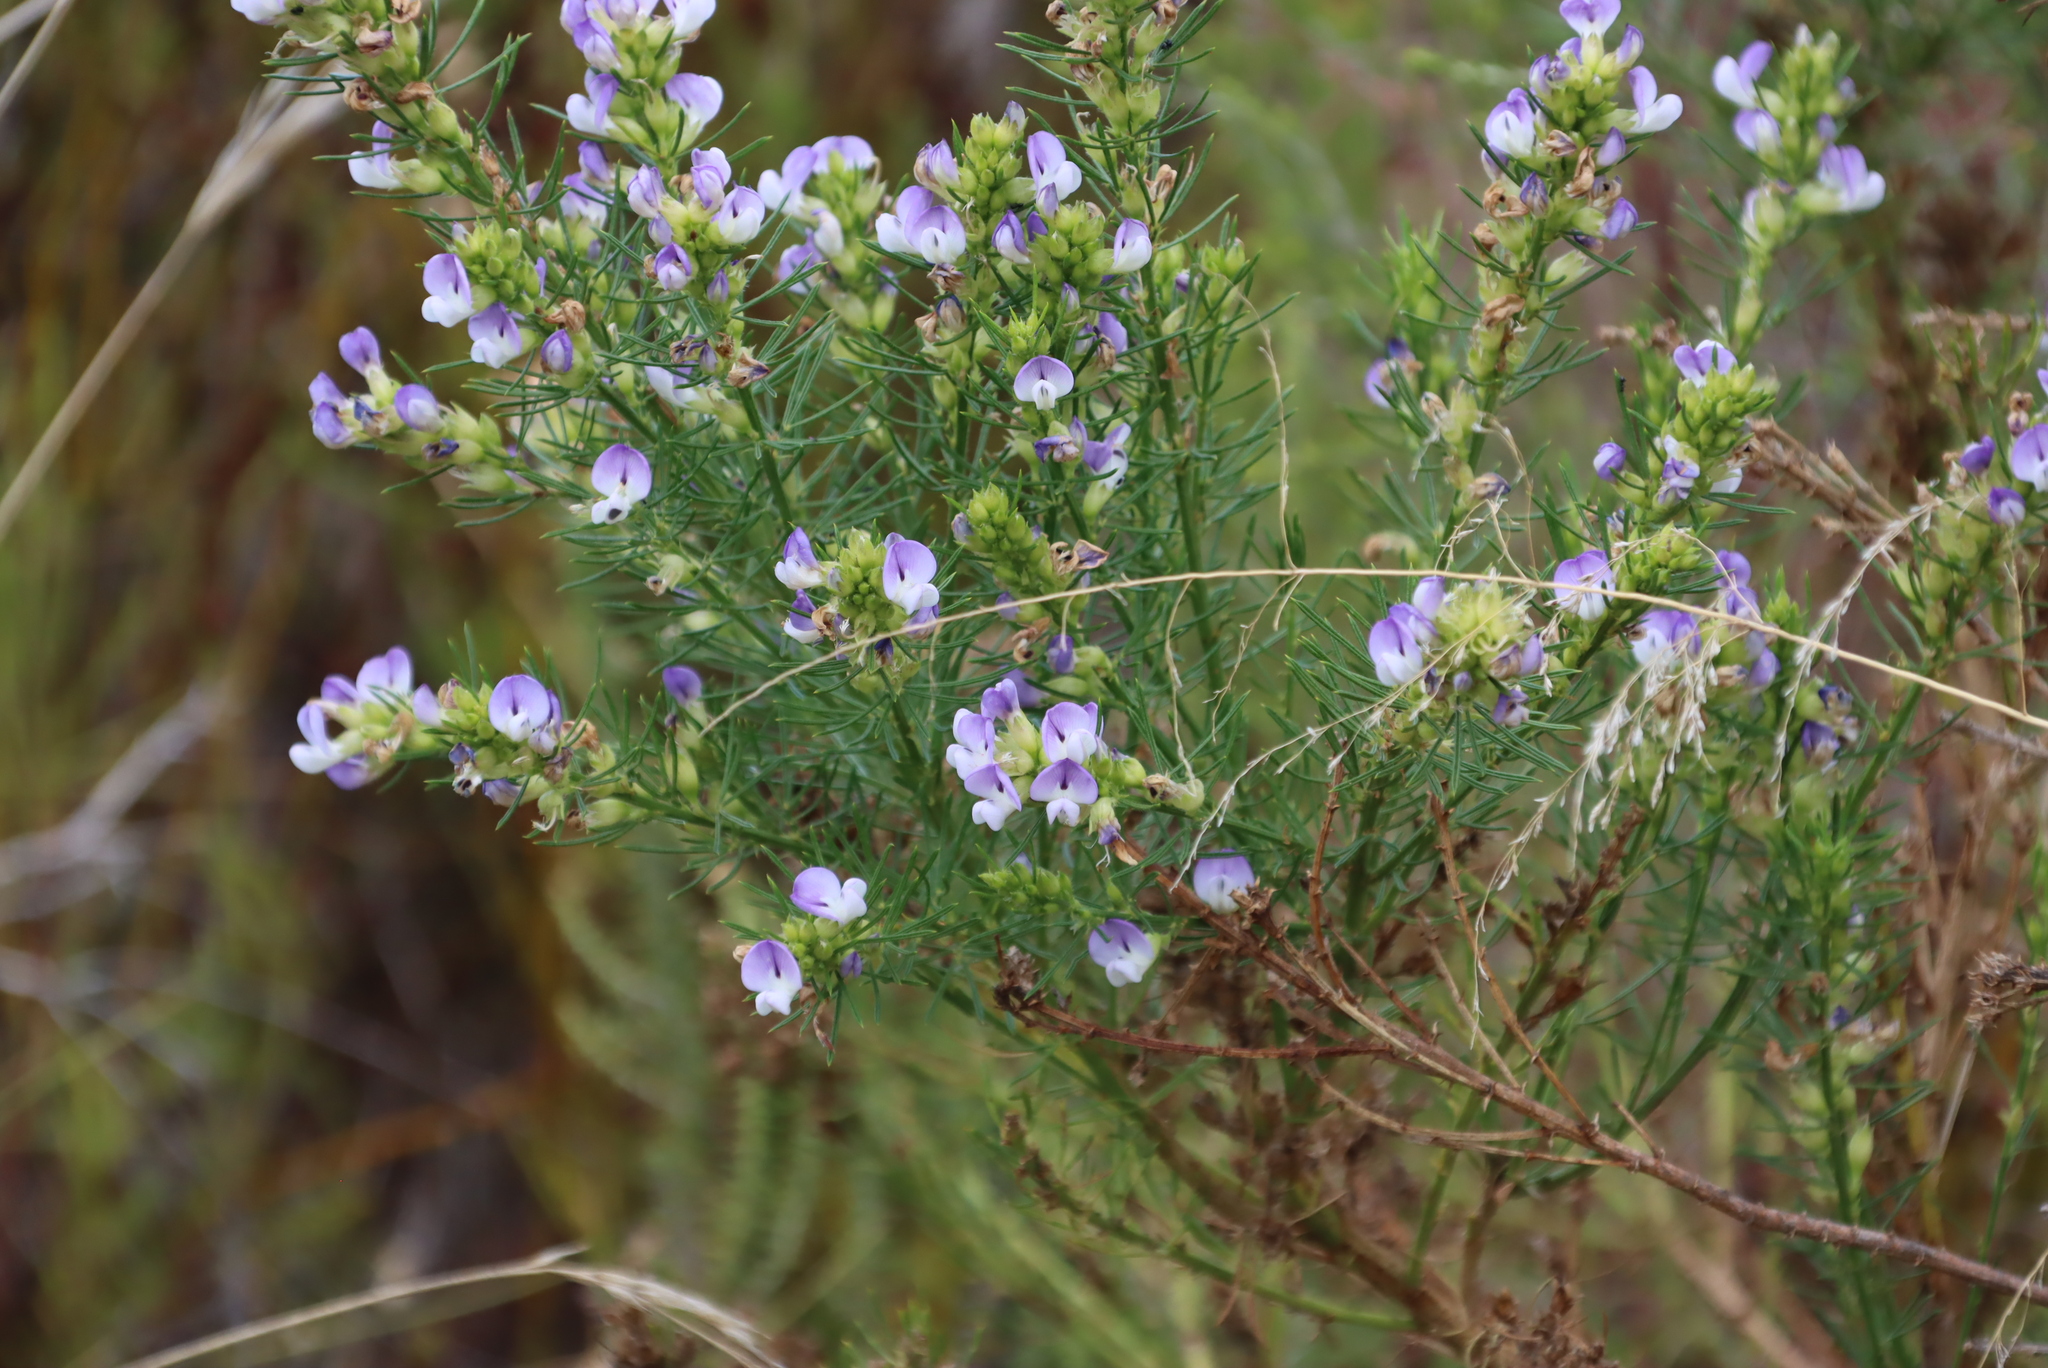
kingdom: Plantae
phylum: Tracheophyta
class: Magnoliopsida
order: Fabales
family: Fabaceae
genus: Psoralea
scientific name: Psoralea pinnata
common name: African scurfpea
